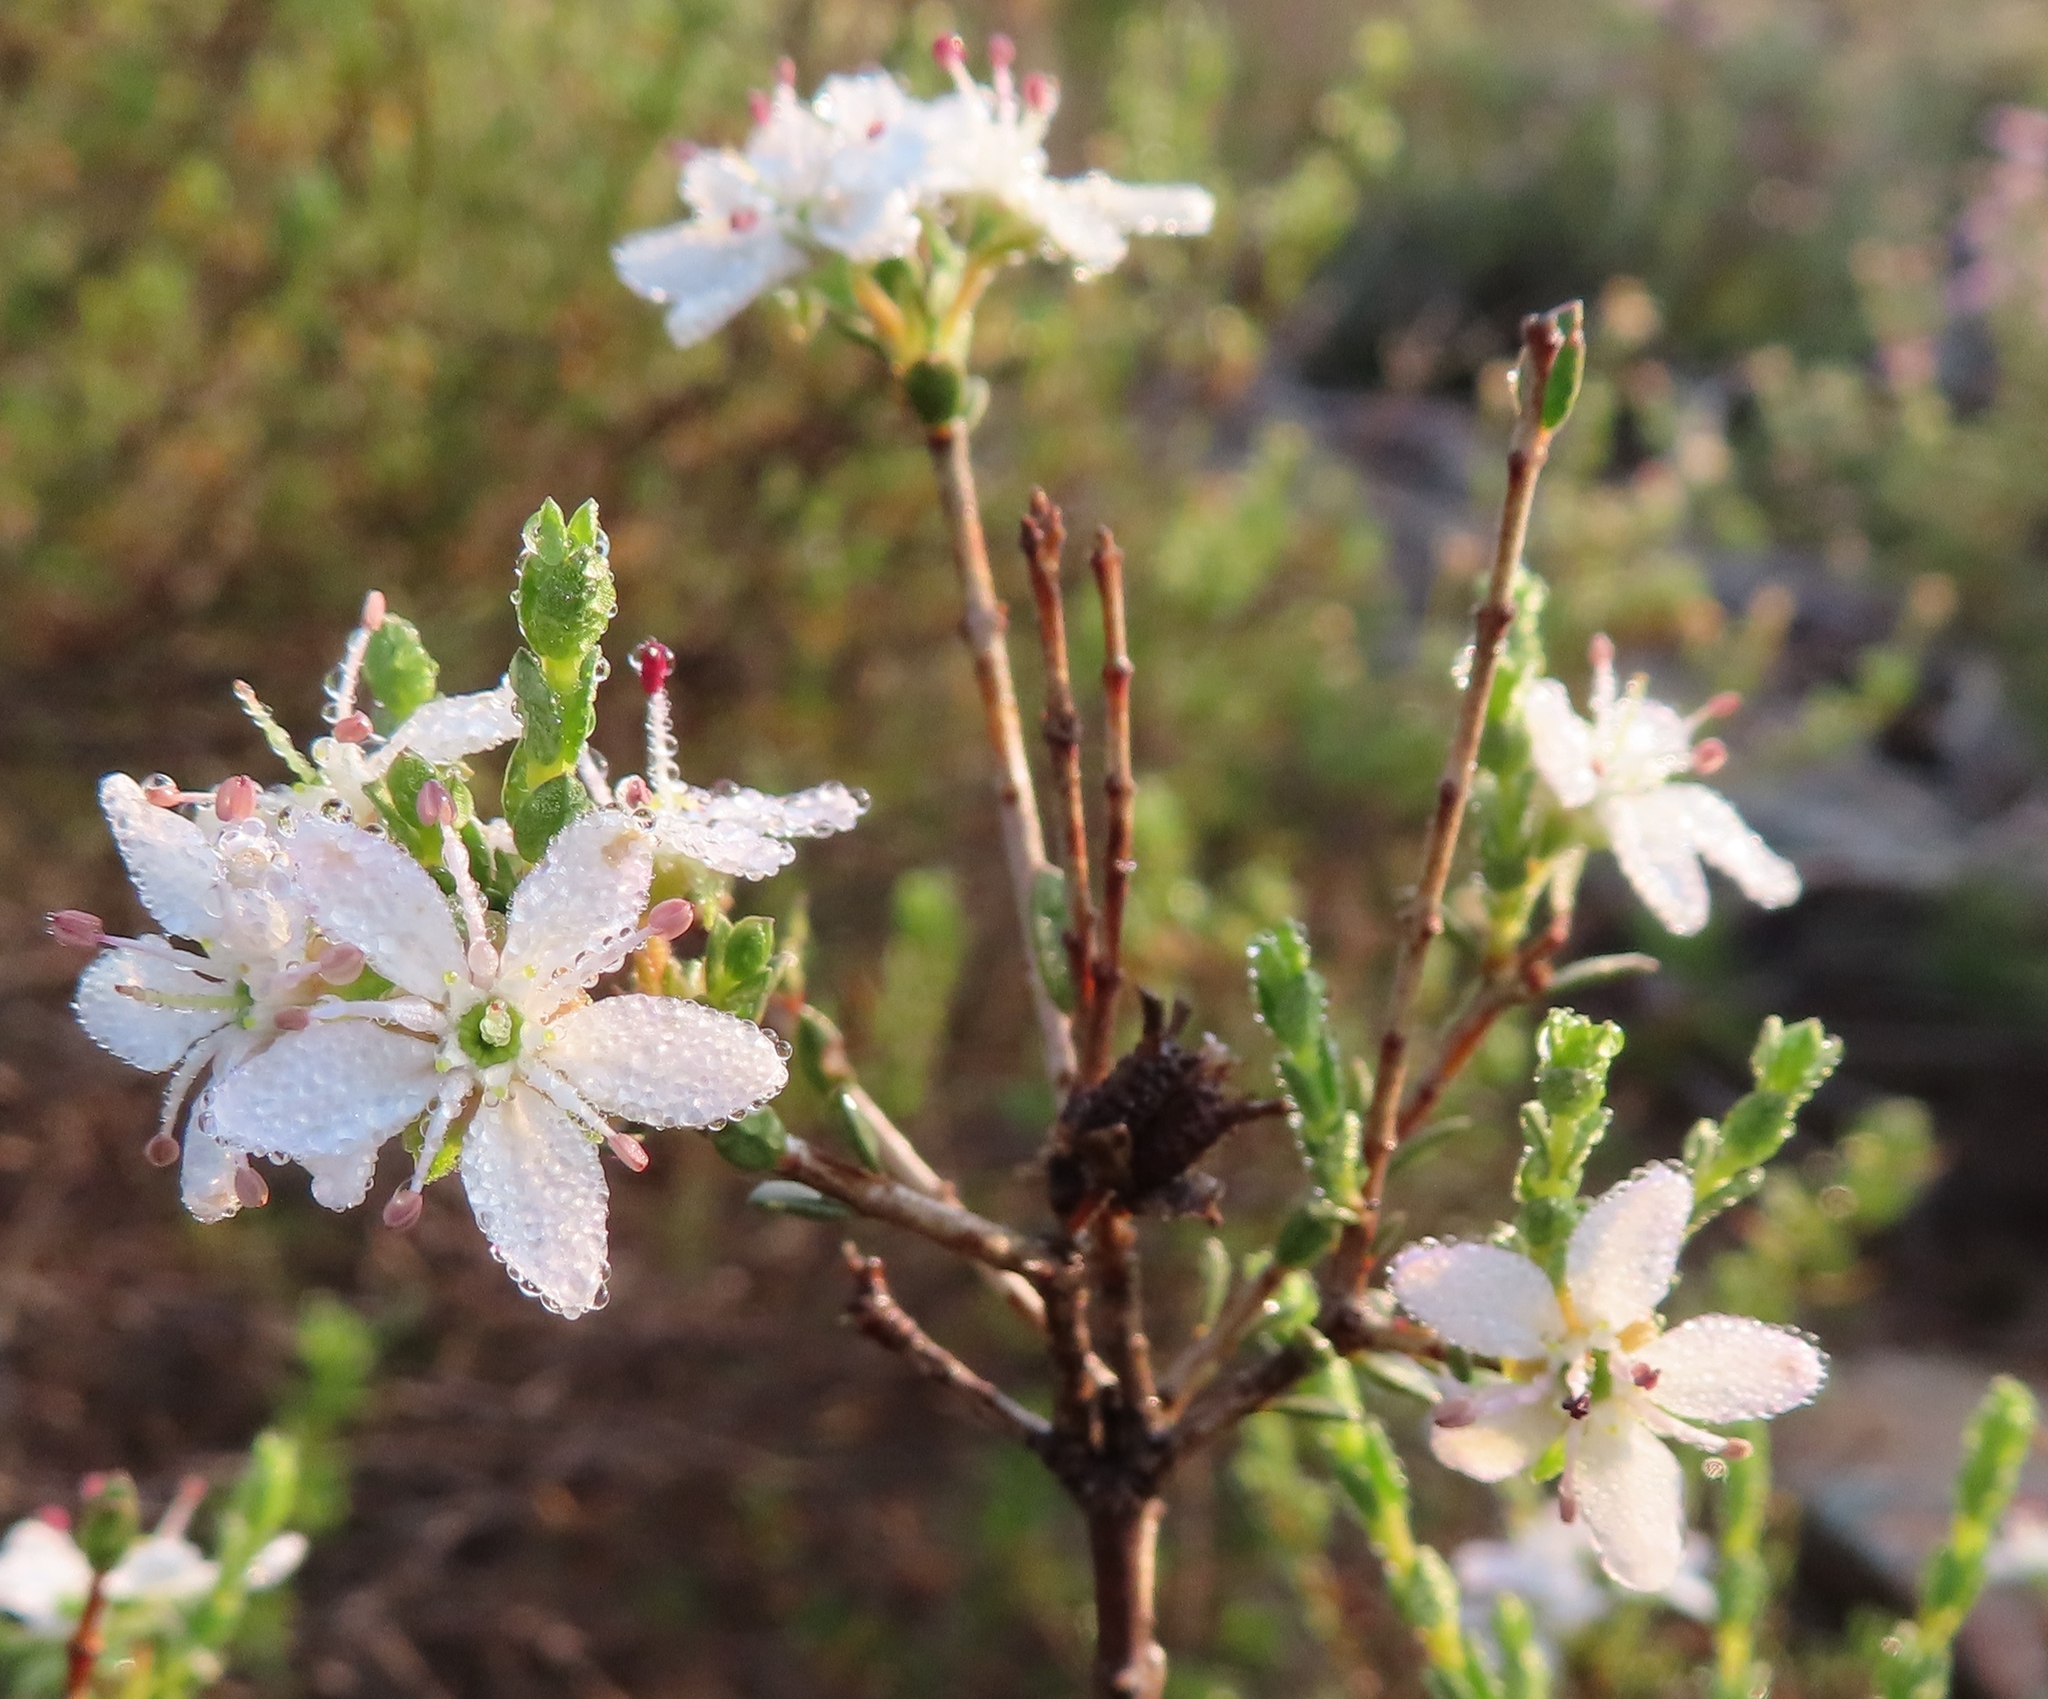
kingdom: Plantae
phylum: Tracheophyta
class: Magnoliopsida
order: Sapindales
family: Rutaceae
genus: Agathosma
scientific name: Agathosma spinescens
